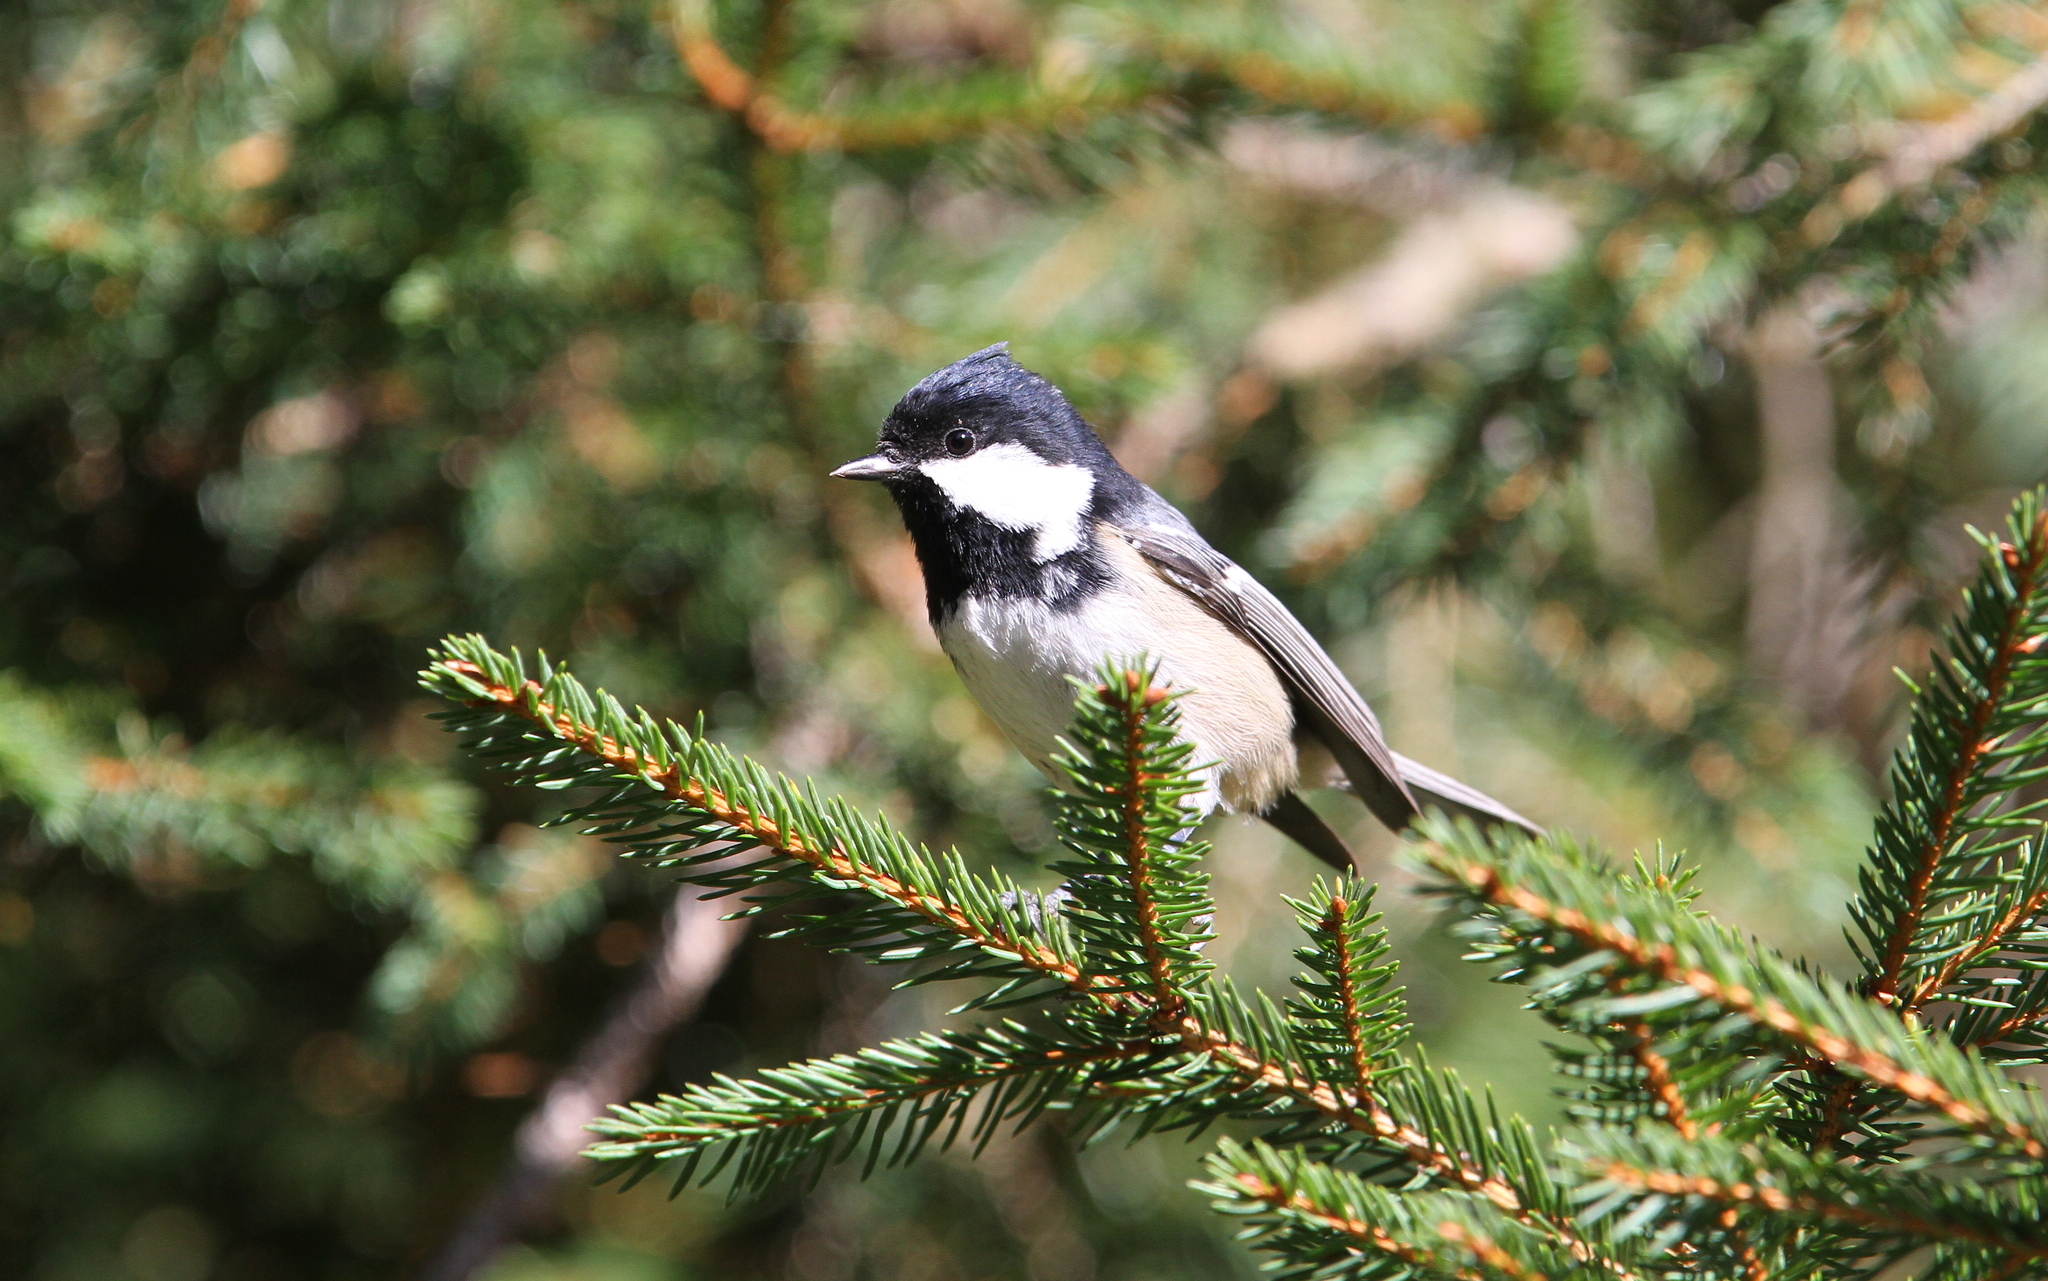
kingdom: Animalia
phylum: Chordata
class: Aves
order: Passeriformes
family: Paridae
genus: Periparus
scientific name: Periparus ater
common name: Coal tit
